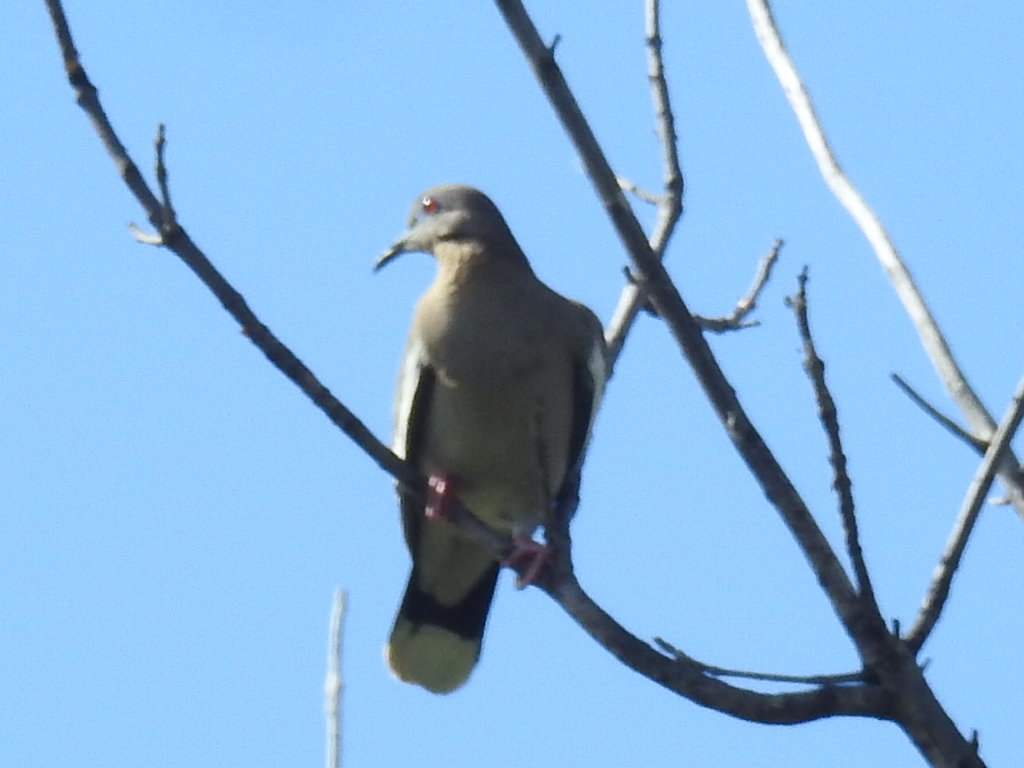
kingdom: Animalia
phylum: Chordata
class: Aves
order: Columbiformes
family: Columbidae
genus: Zenaida
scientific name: Zenaida asiatica
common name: White-winged dove
